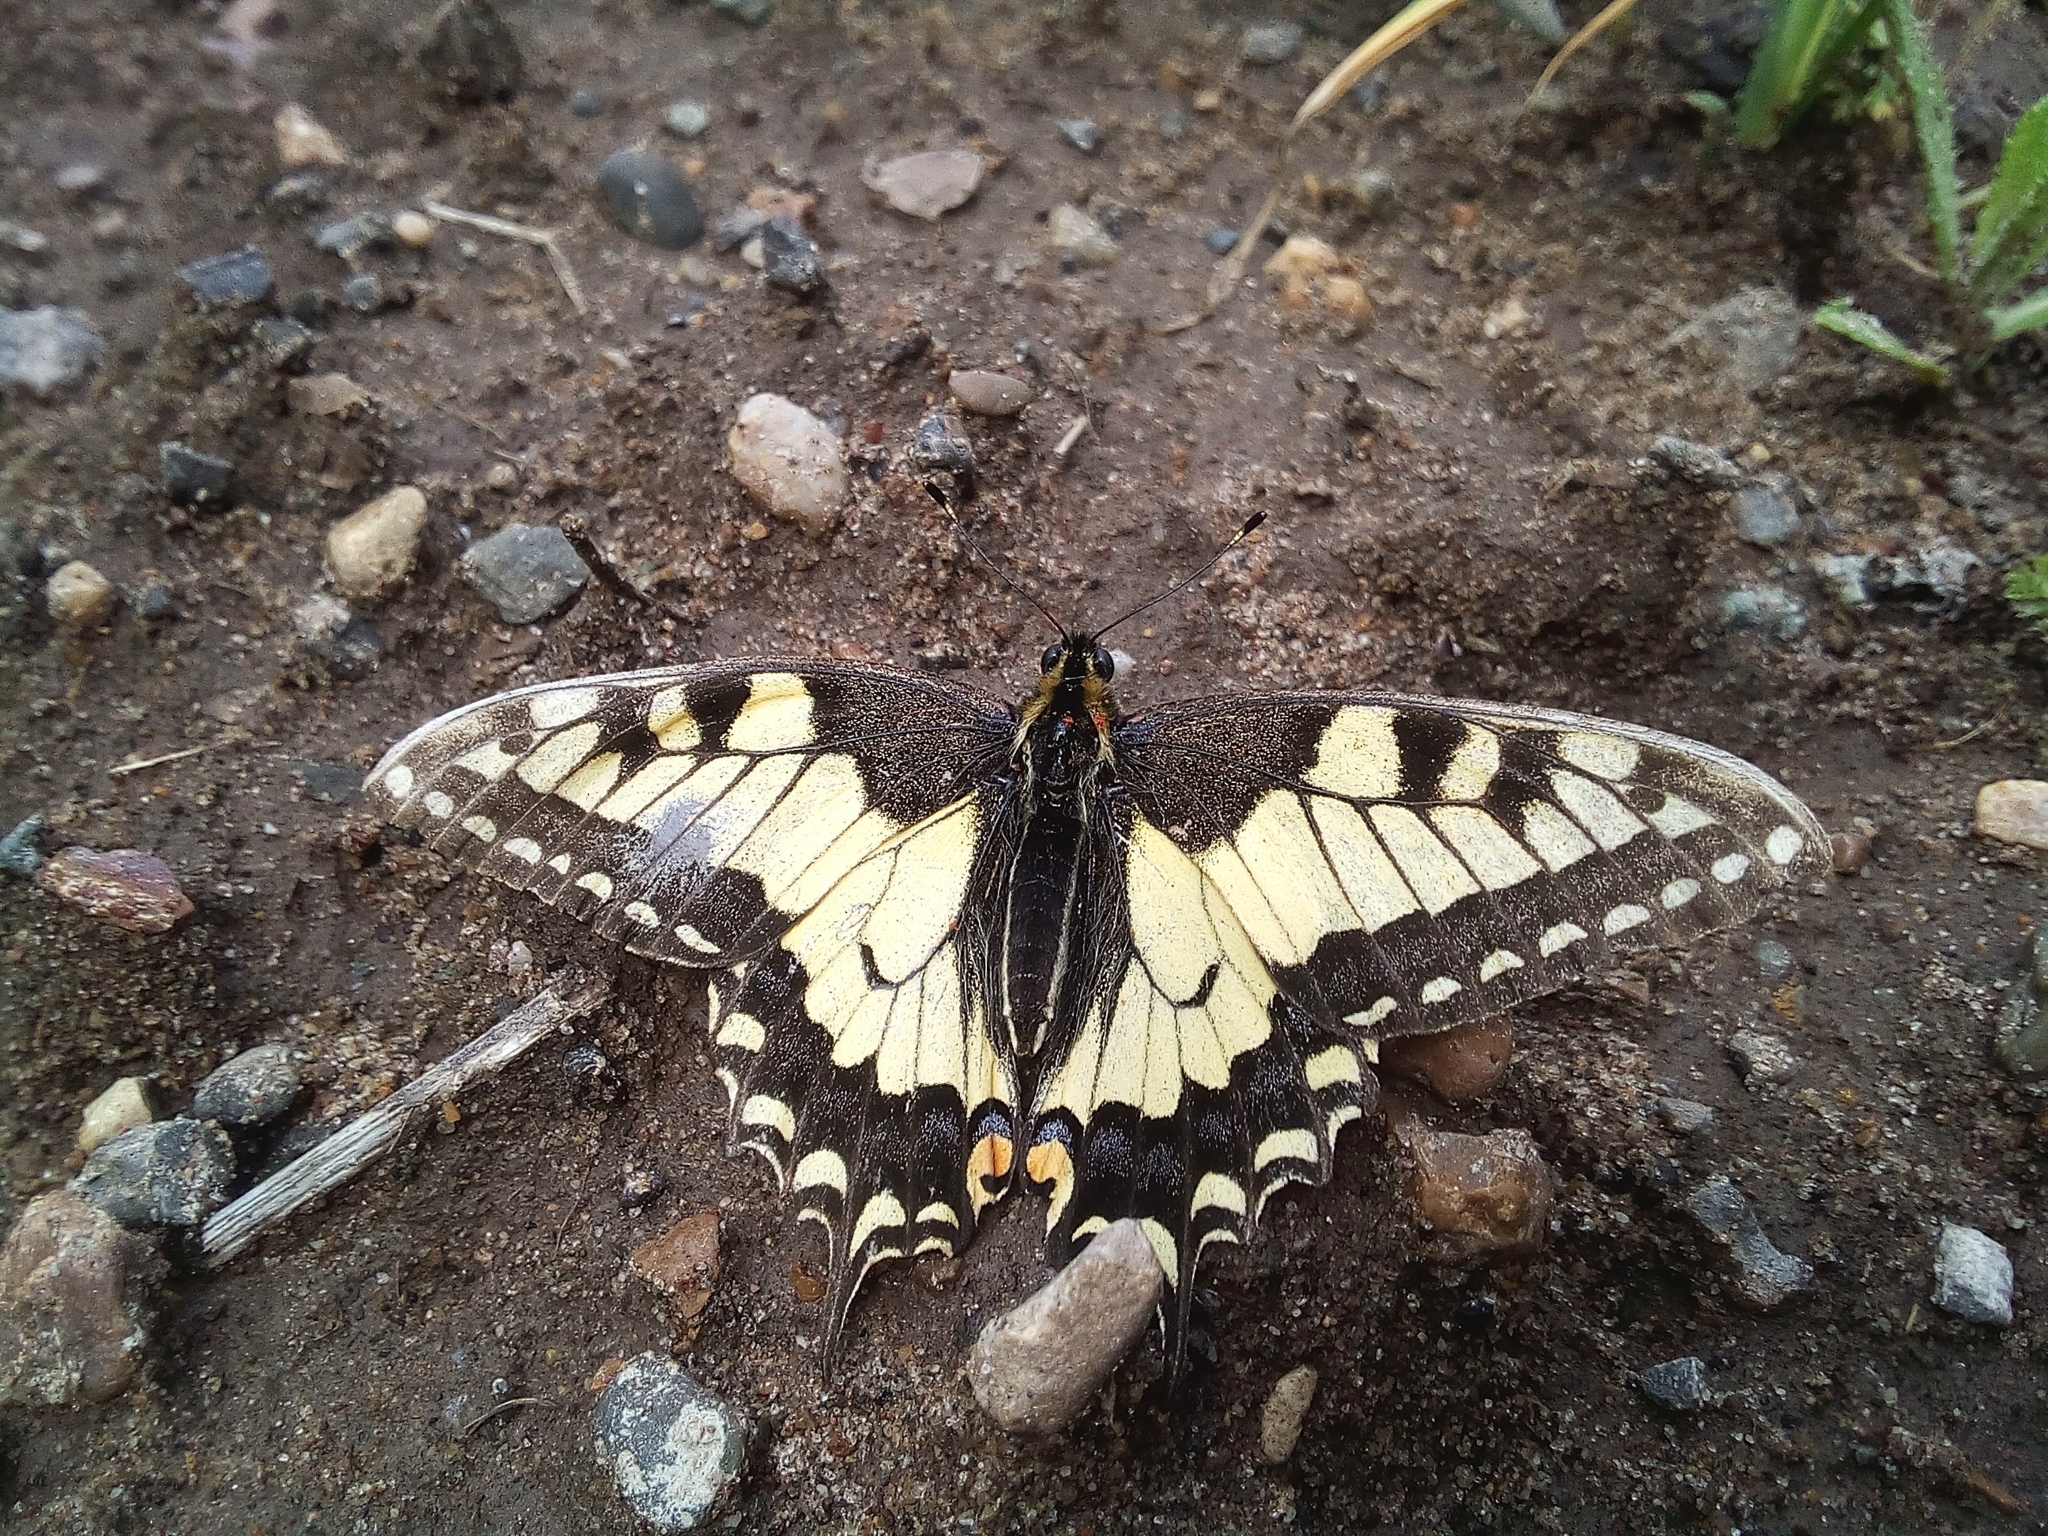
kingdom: Animalia
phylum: Arthropoda
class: Insecta
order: Lepidoptera
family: Papilionidae
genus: Papilio
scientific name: Papilio machaon
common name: Swallowtail
